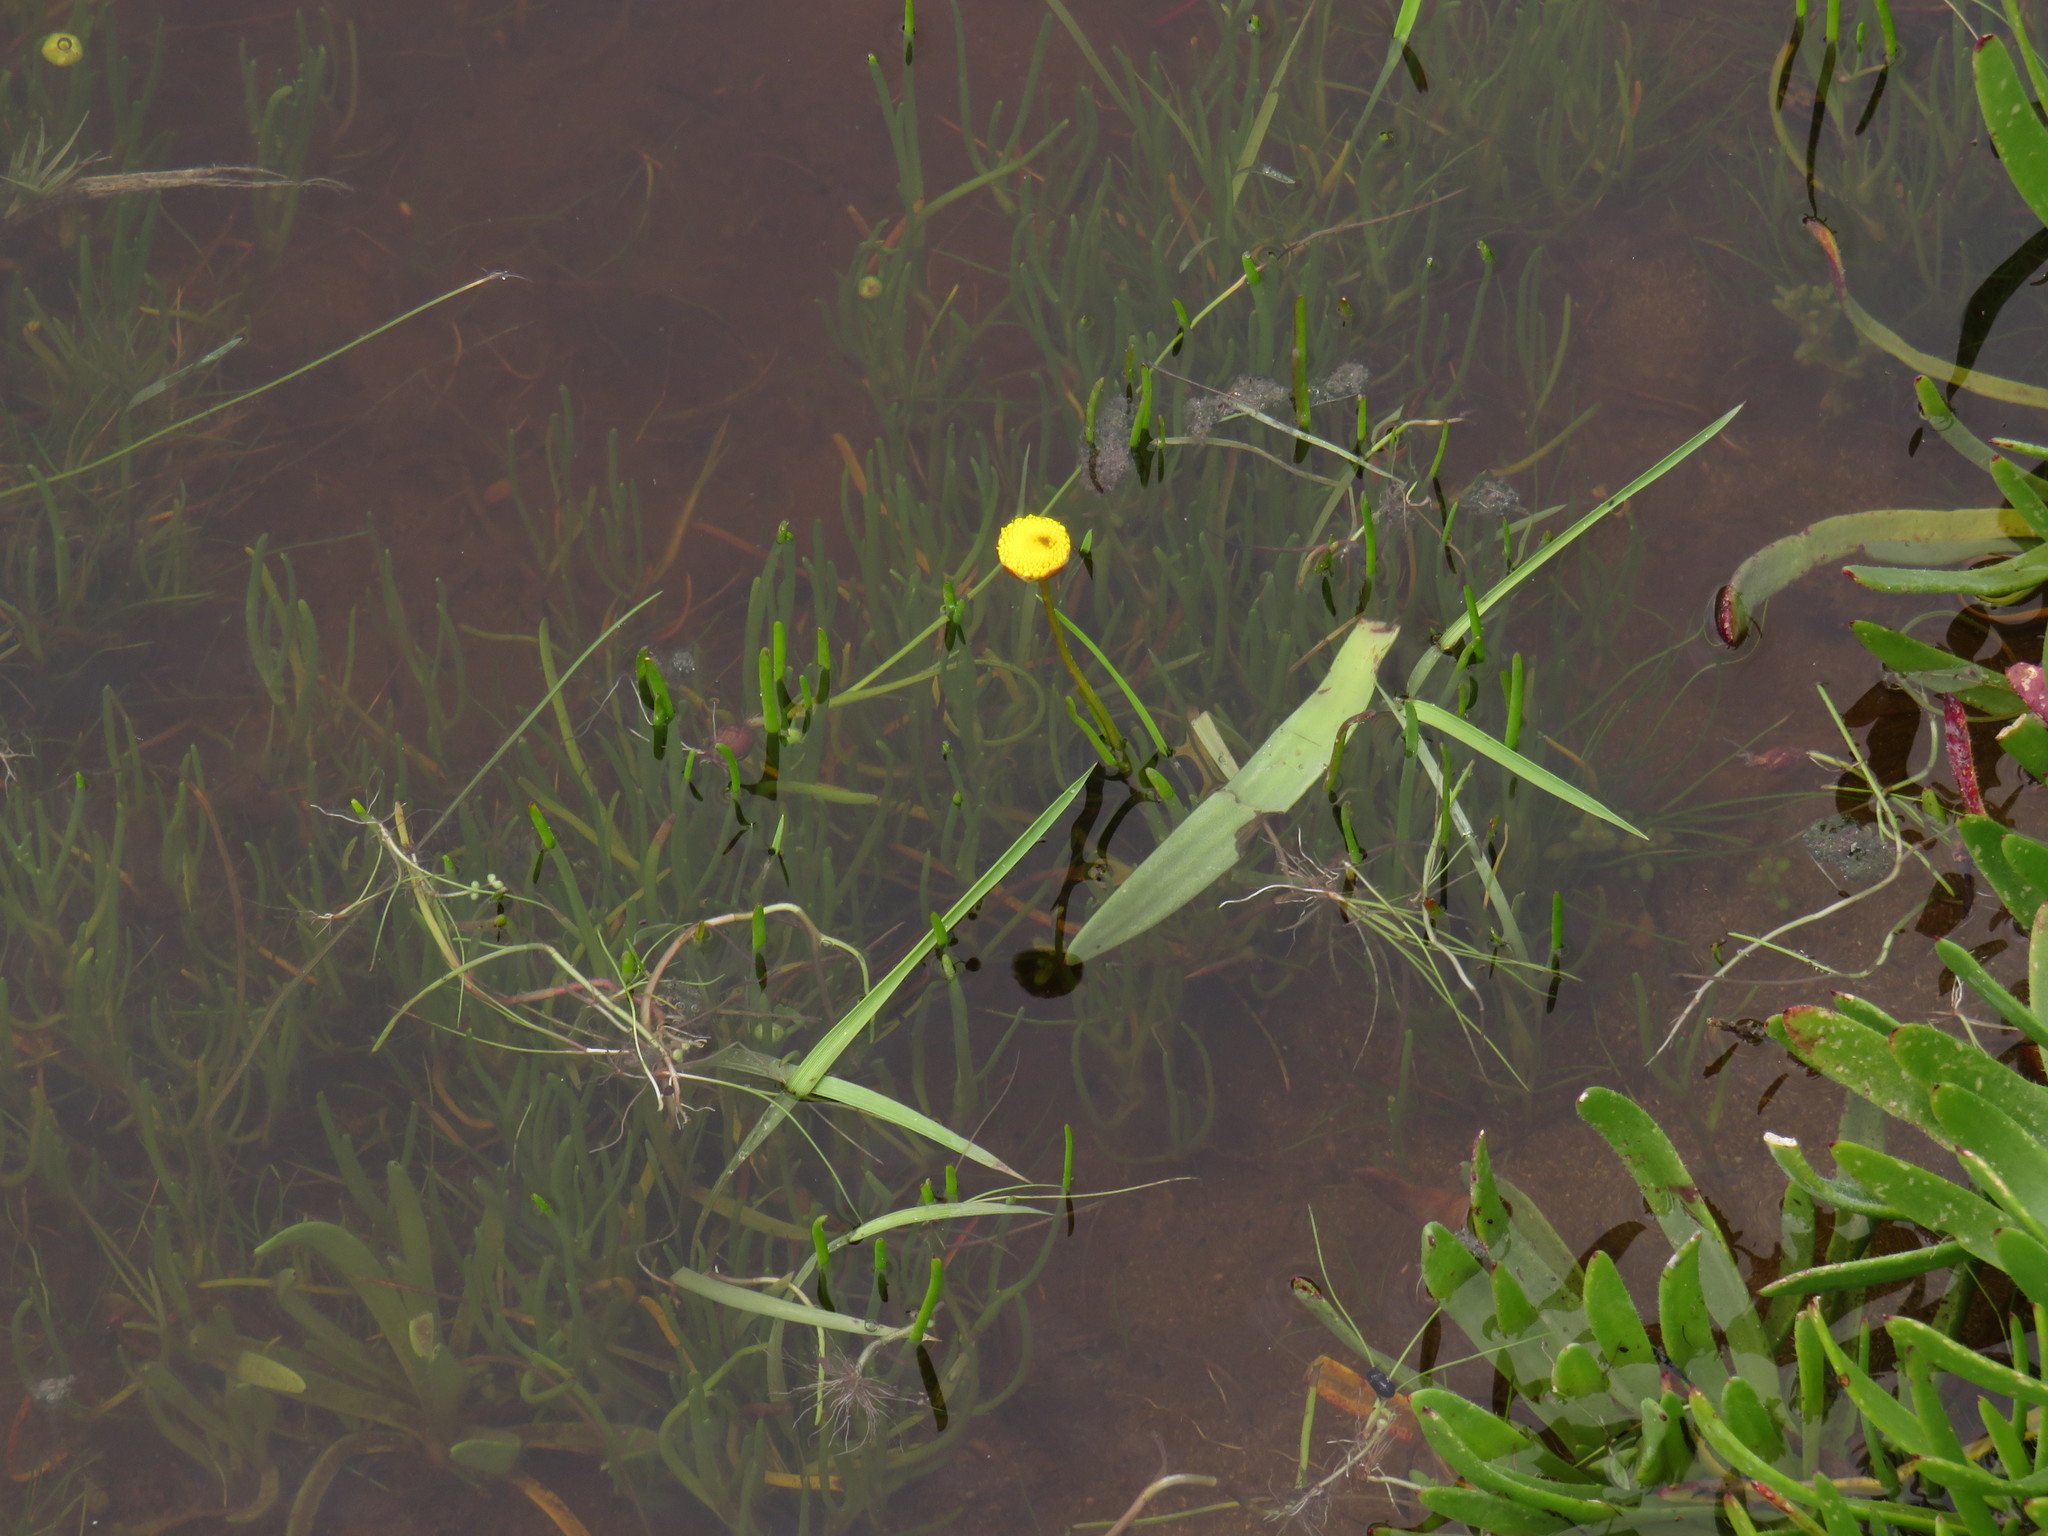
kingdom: Plantae
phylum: Tracheophyta
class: Magnoliopsida
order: Asterales
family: Asteraceae
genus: Cotula
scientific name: Cotula vulgaris
